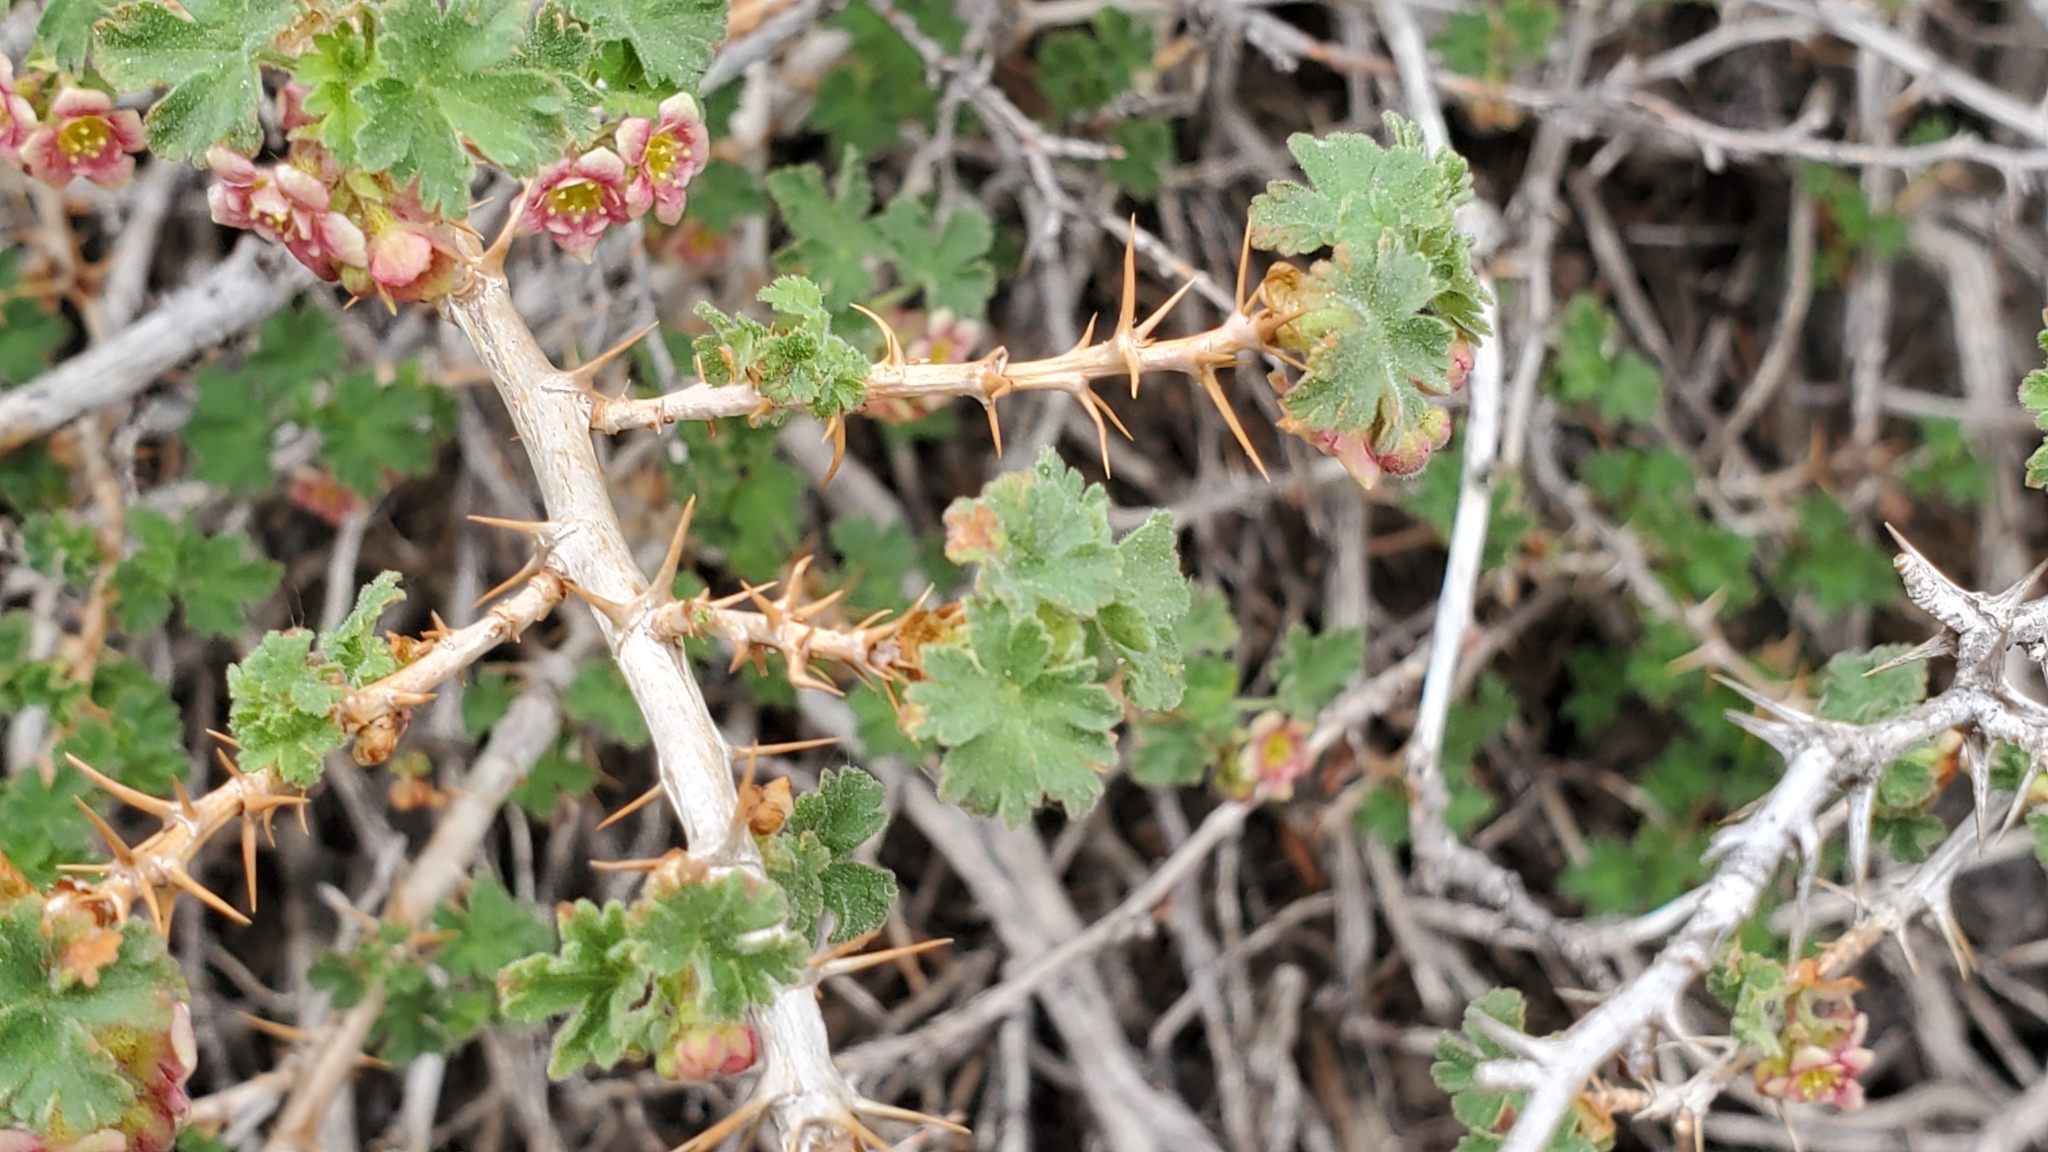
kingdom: Plantae
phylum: Tracheophyta
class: Magnoliopsida
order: Saxifragales
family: Grossulariaceae
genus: Ribes
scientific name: Ribes montigenum
